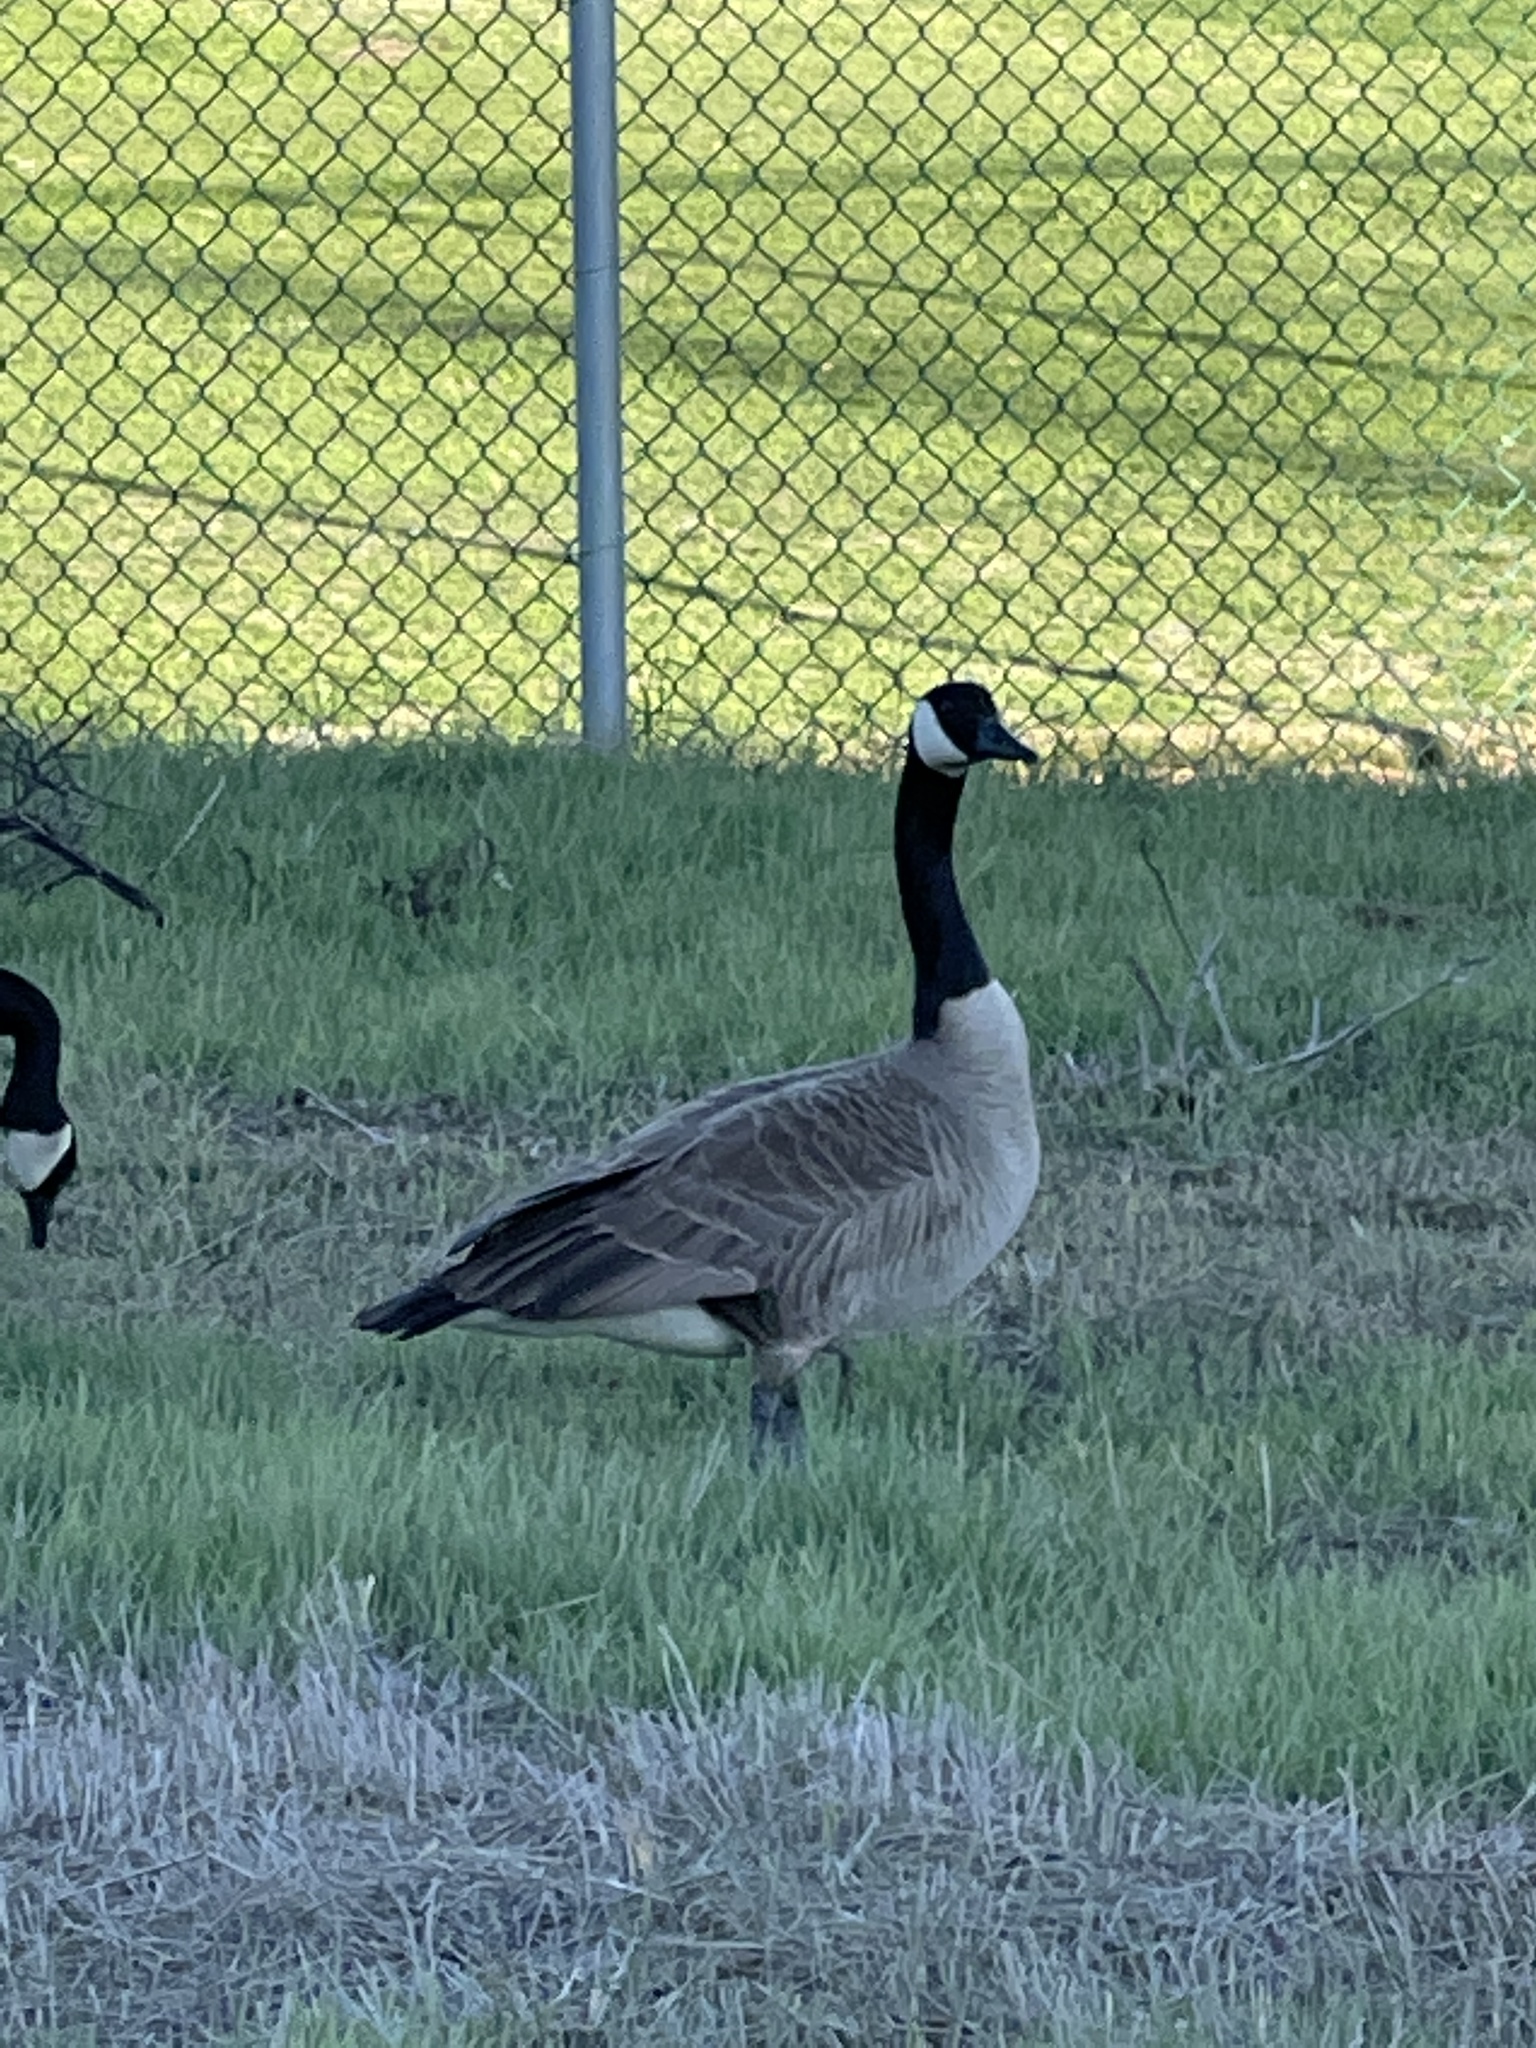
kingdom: Animalia
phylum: Chordata
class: Aves
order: Anseriformes
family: Anatidae
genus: Branta
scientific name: Branta canadensis
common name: Canada goose
